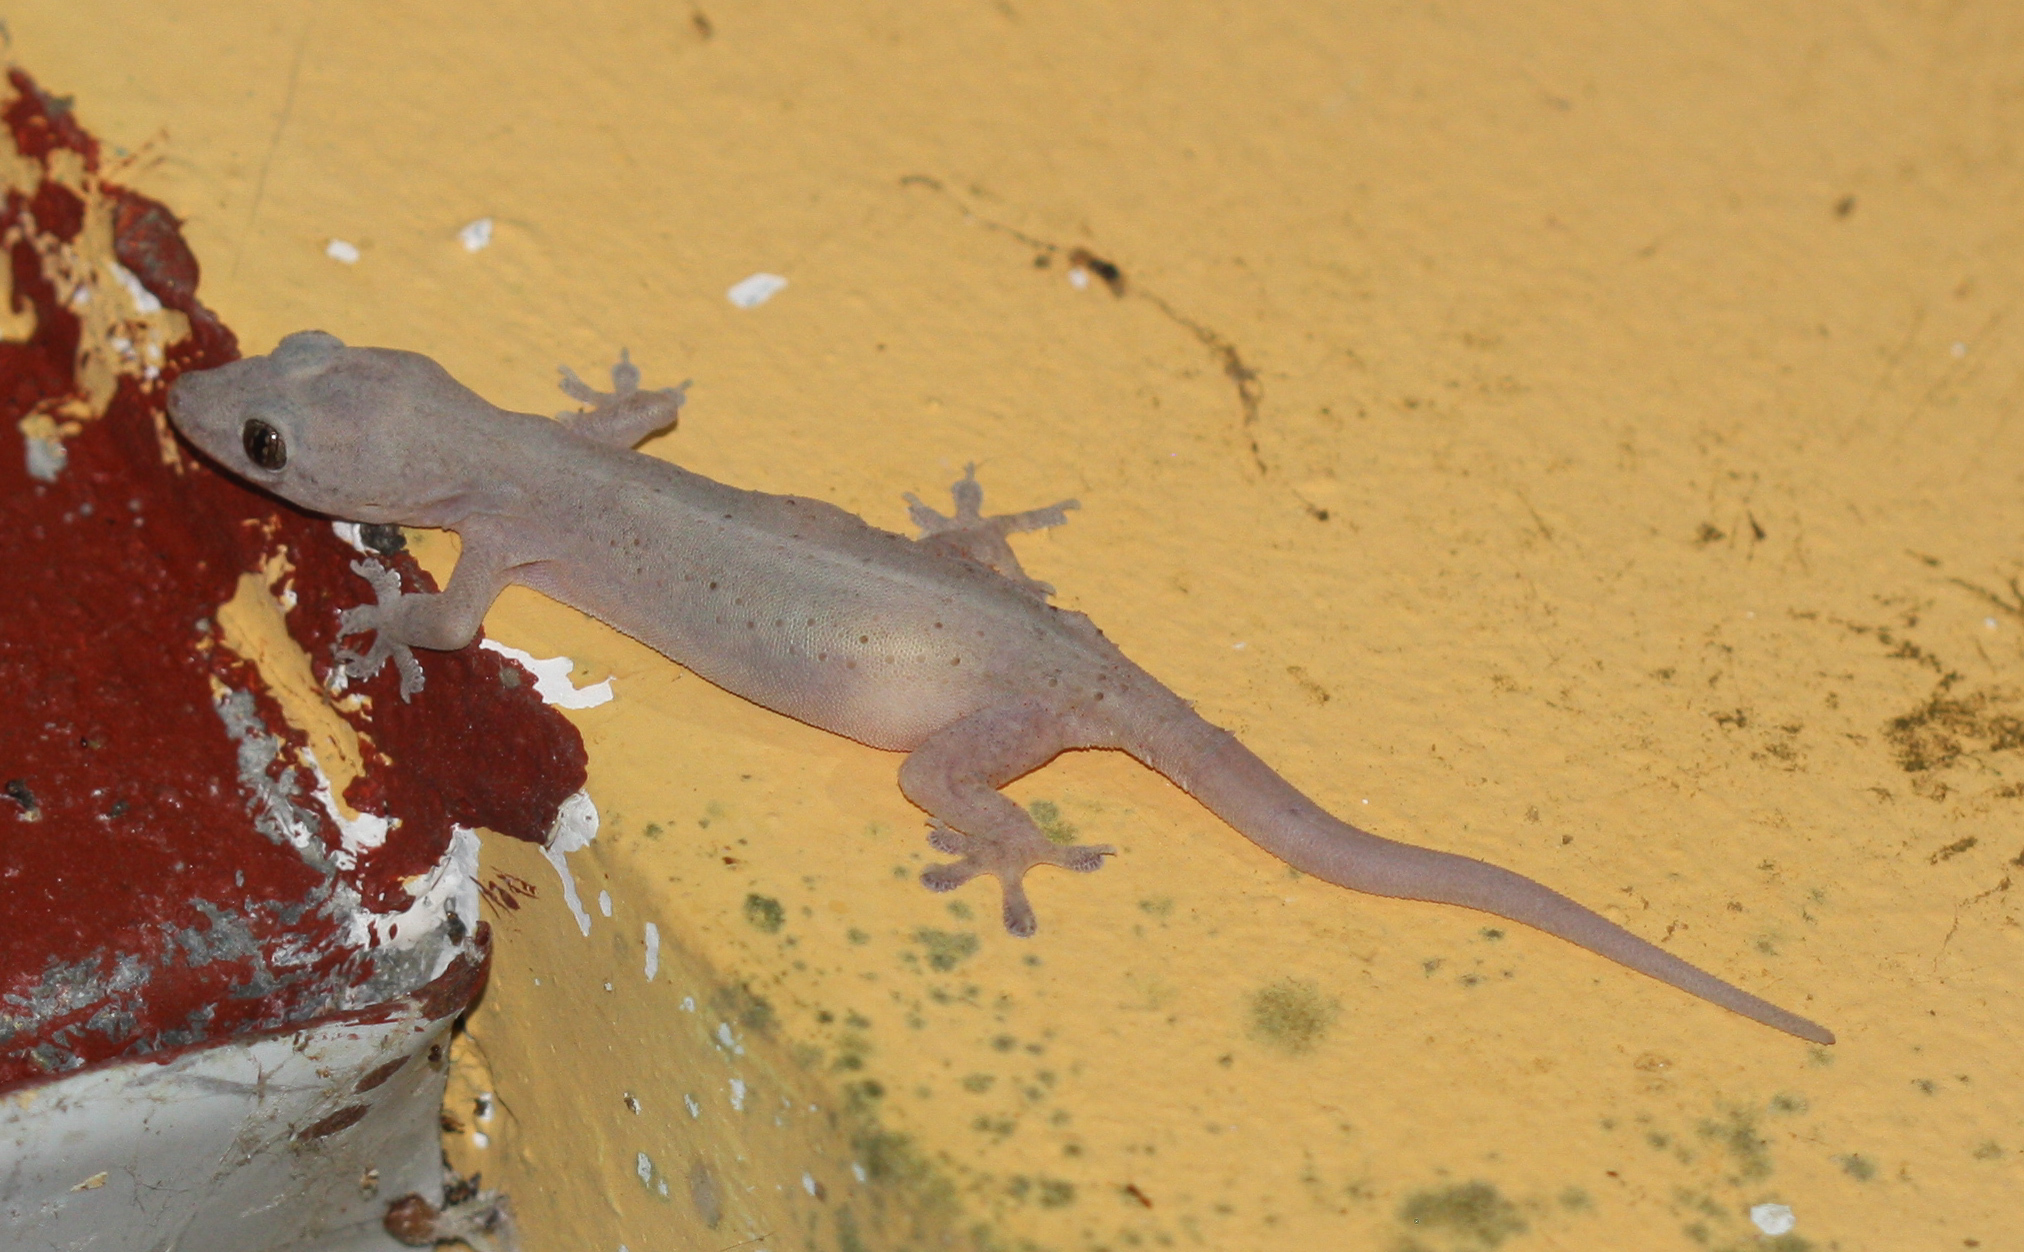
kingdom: Animalia
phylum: Chordata
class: Squamata
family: Gekkonidae
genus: Hemidactylus
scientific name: Hemidactylus frenatus
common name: Common house gecko
